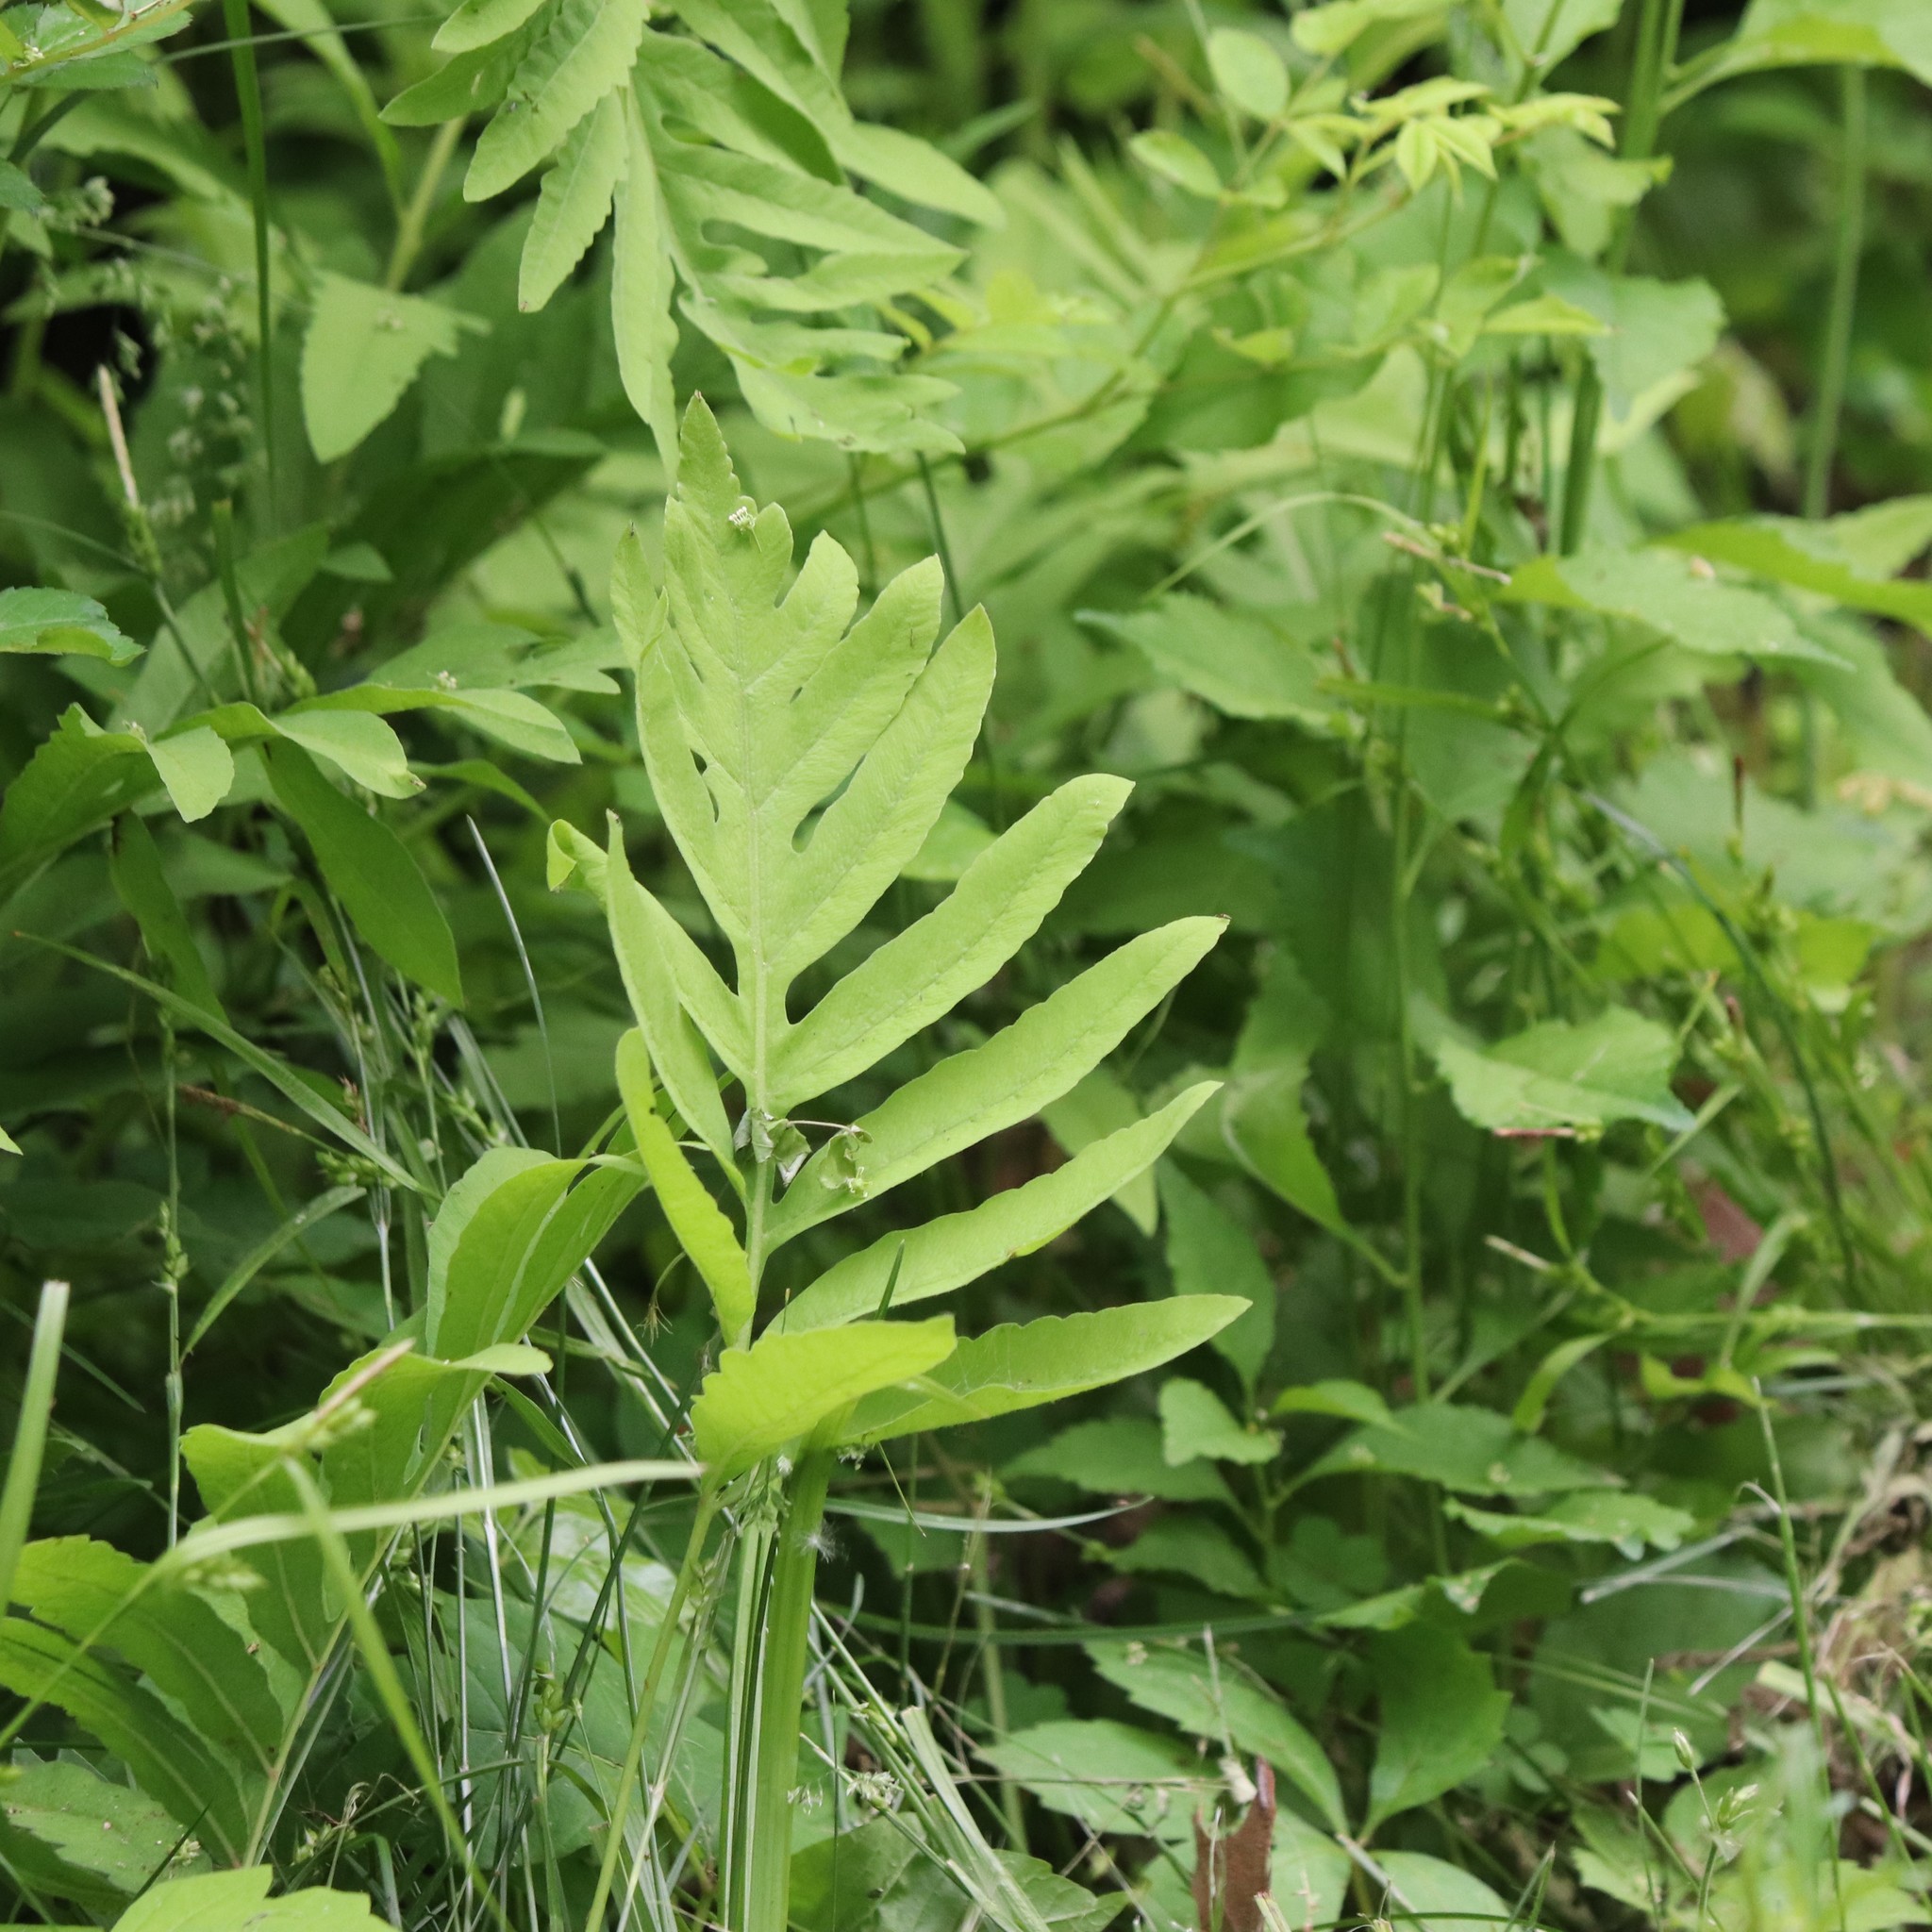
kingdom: Plantae
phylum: Tracheophyta
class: Polypodiopsida
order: Polypodiales
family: Onocleaceae
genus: Onoclea
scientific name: Onoclea sensibilis
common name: Sensitive fern
